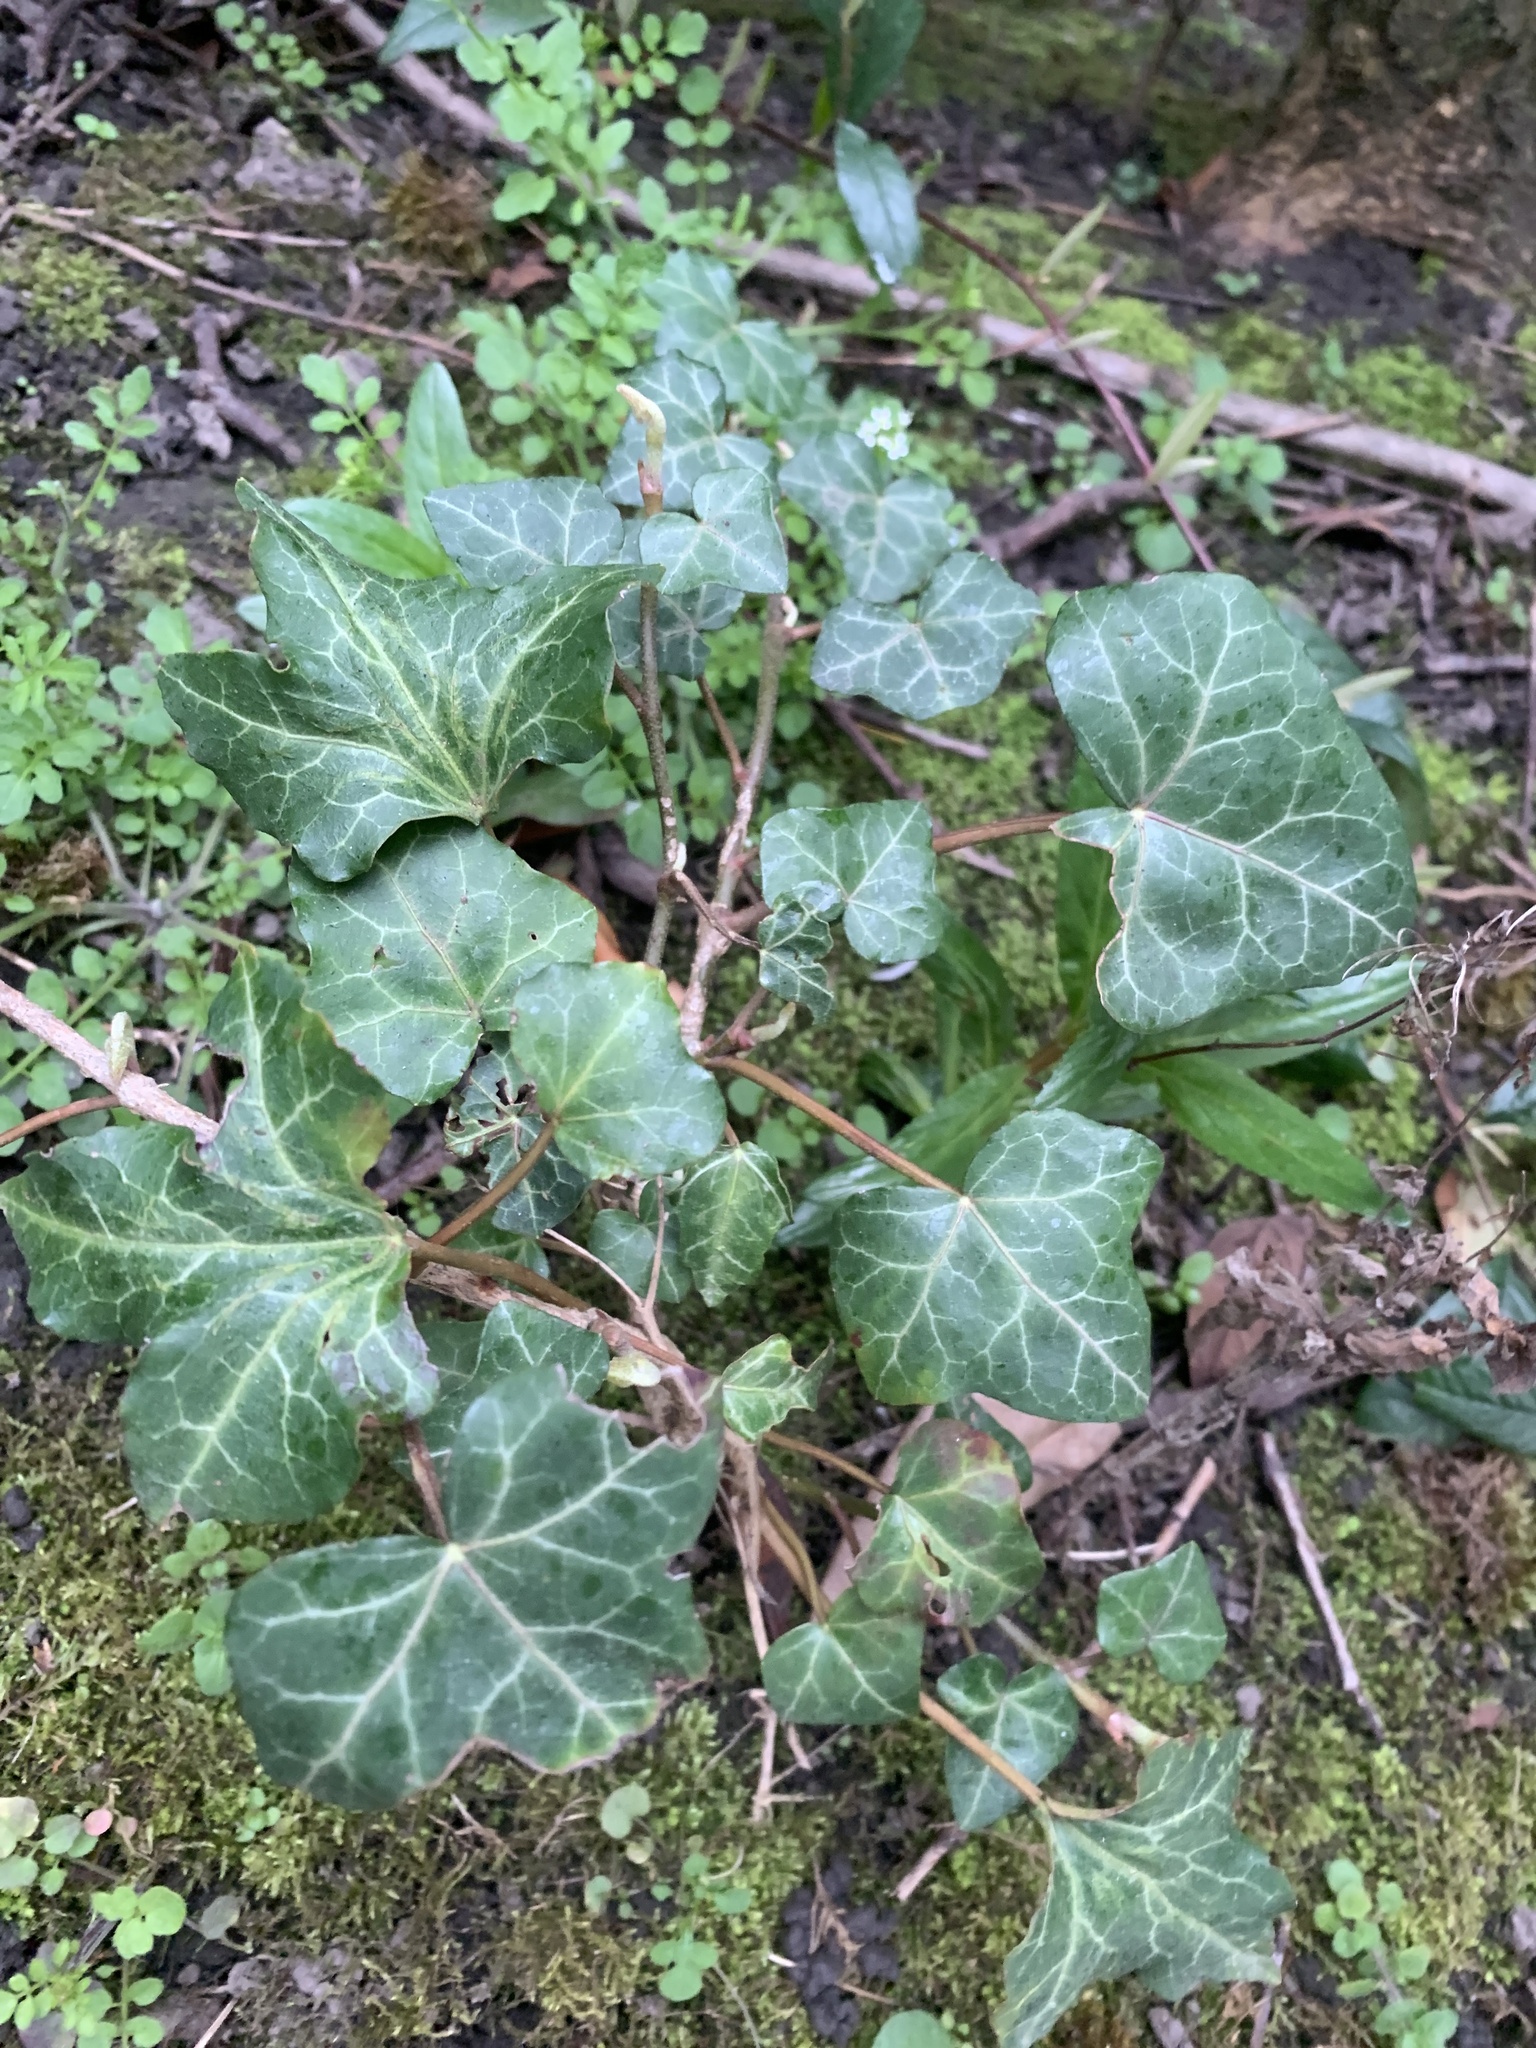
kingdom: Plantae
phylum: Tracheophyta
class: Magnoliopsida
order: Apiales
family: Araliaceae
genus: Hedera
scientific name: Hedera helix
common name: Ivy
